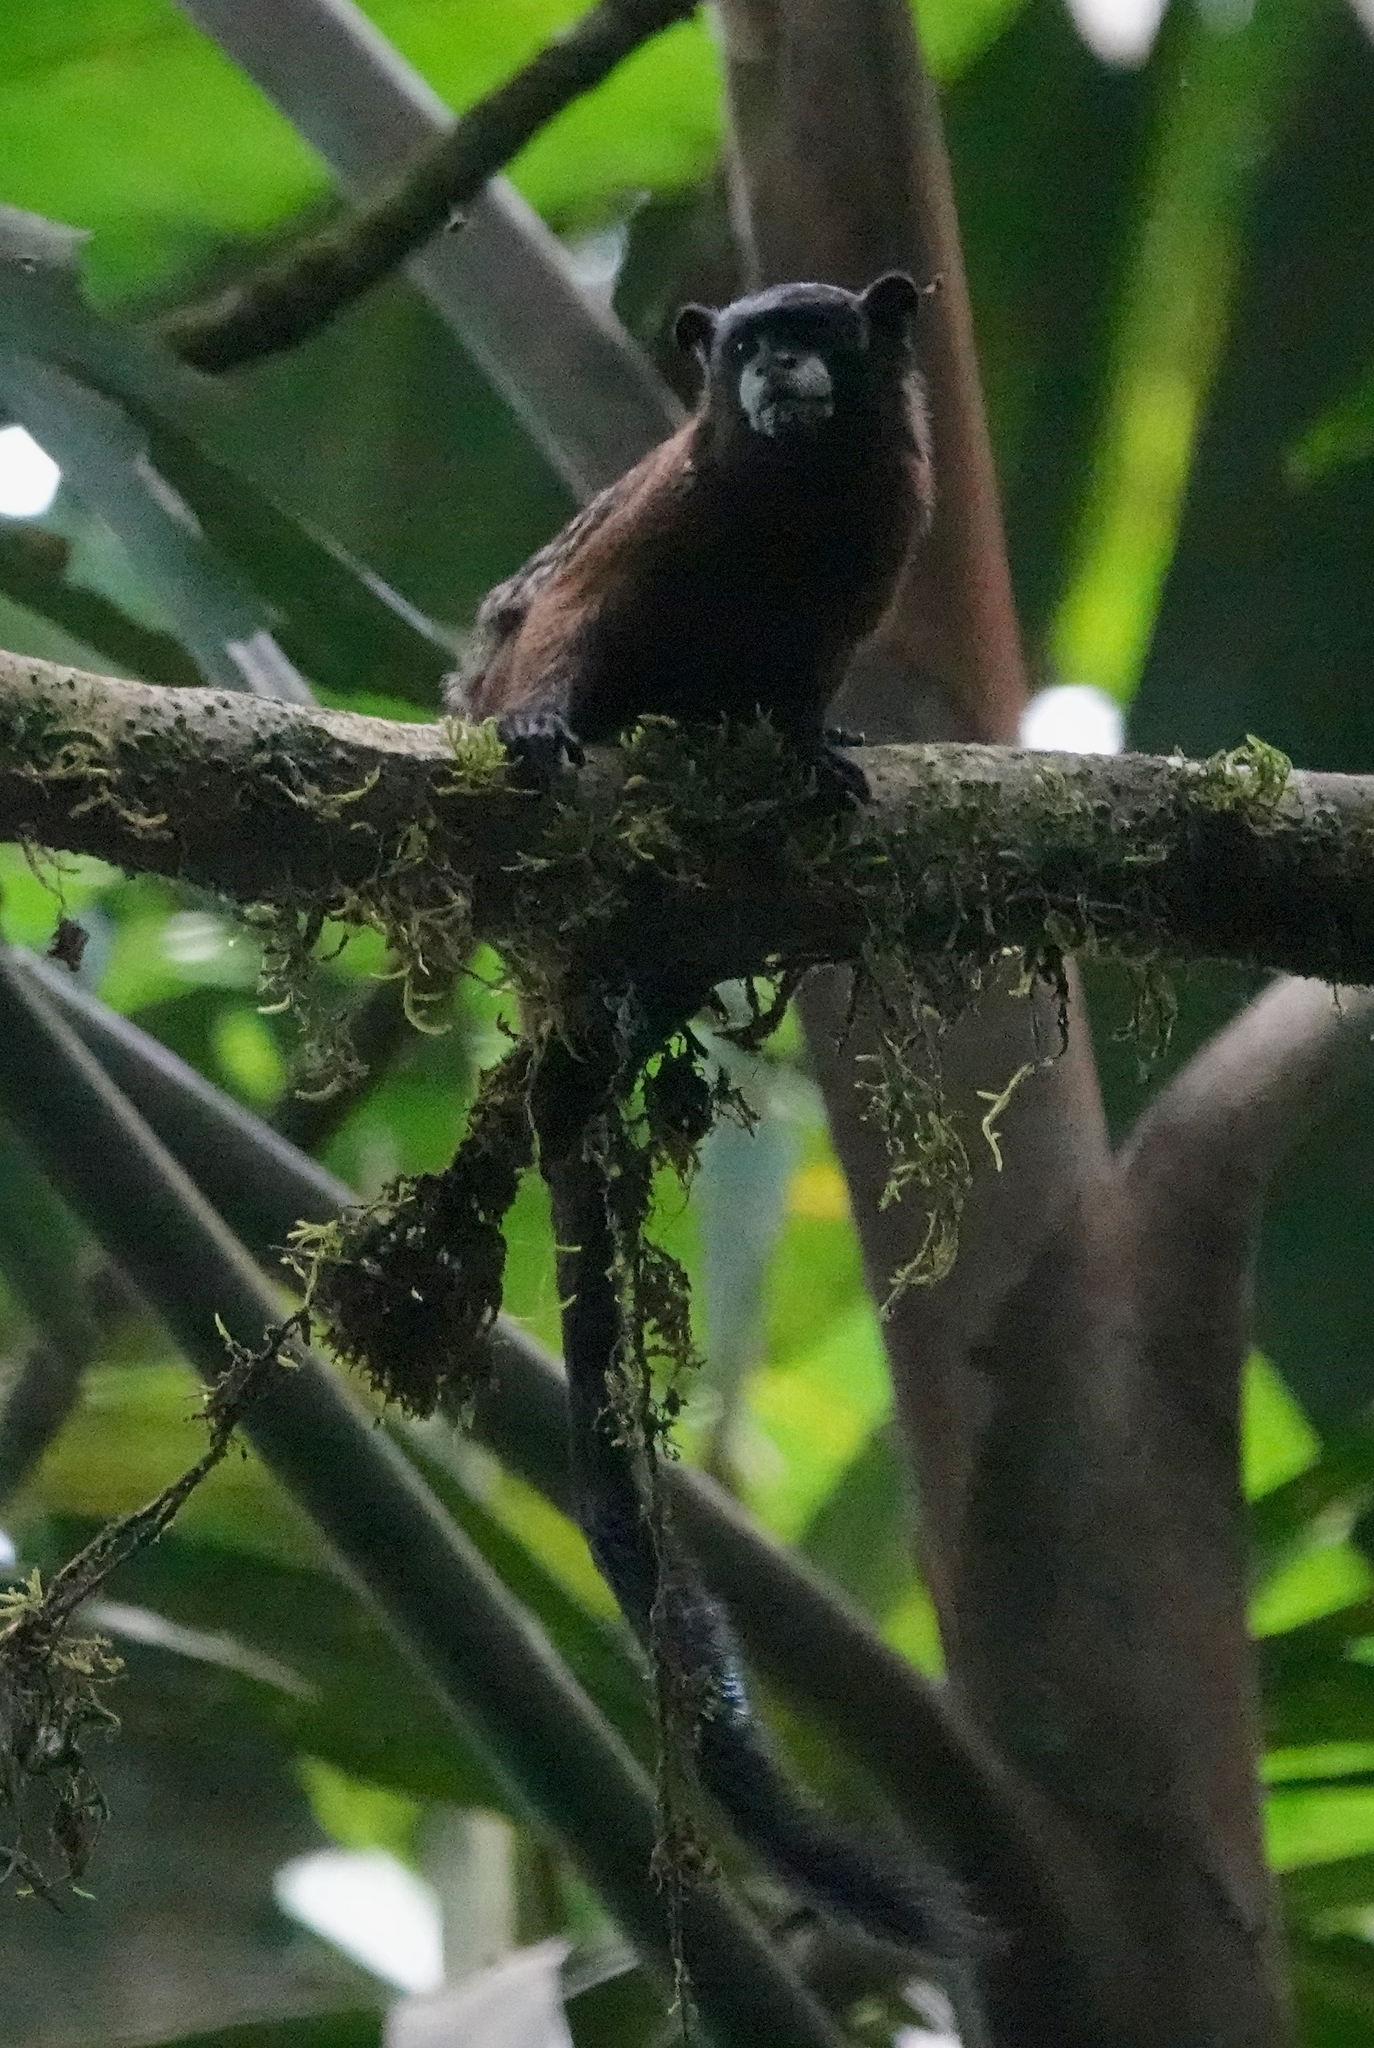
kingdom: Animalia
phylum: Chordata
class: Mammalia
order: Primates
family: Callitrichidae
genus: Leontocebus
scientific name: Leontocebus fuscus
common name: Lesson's saddle-back tamarin
